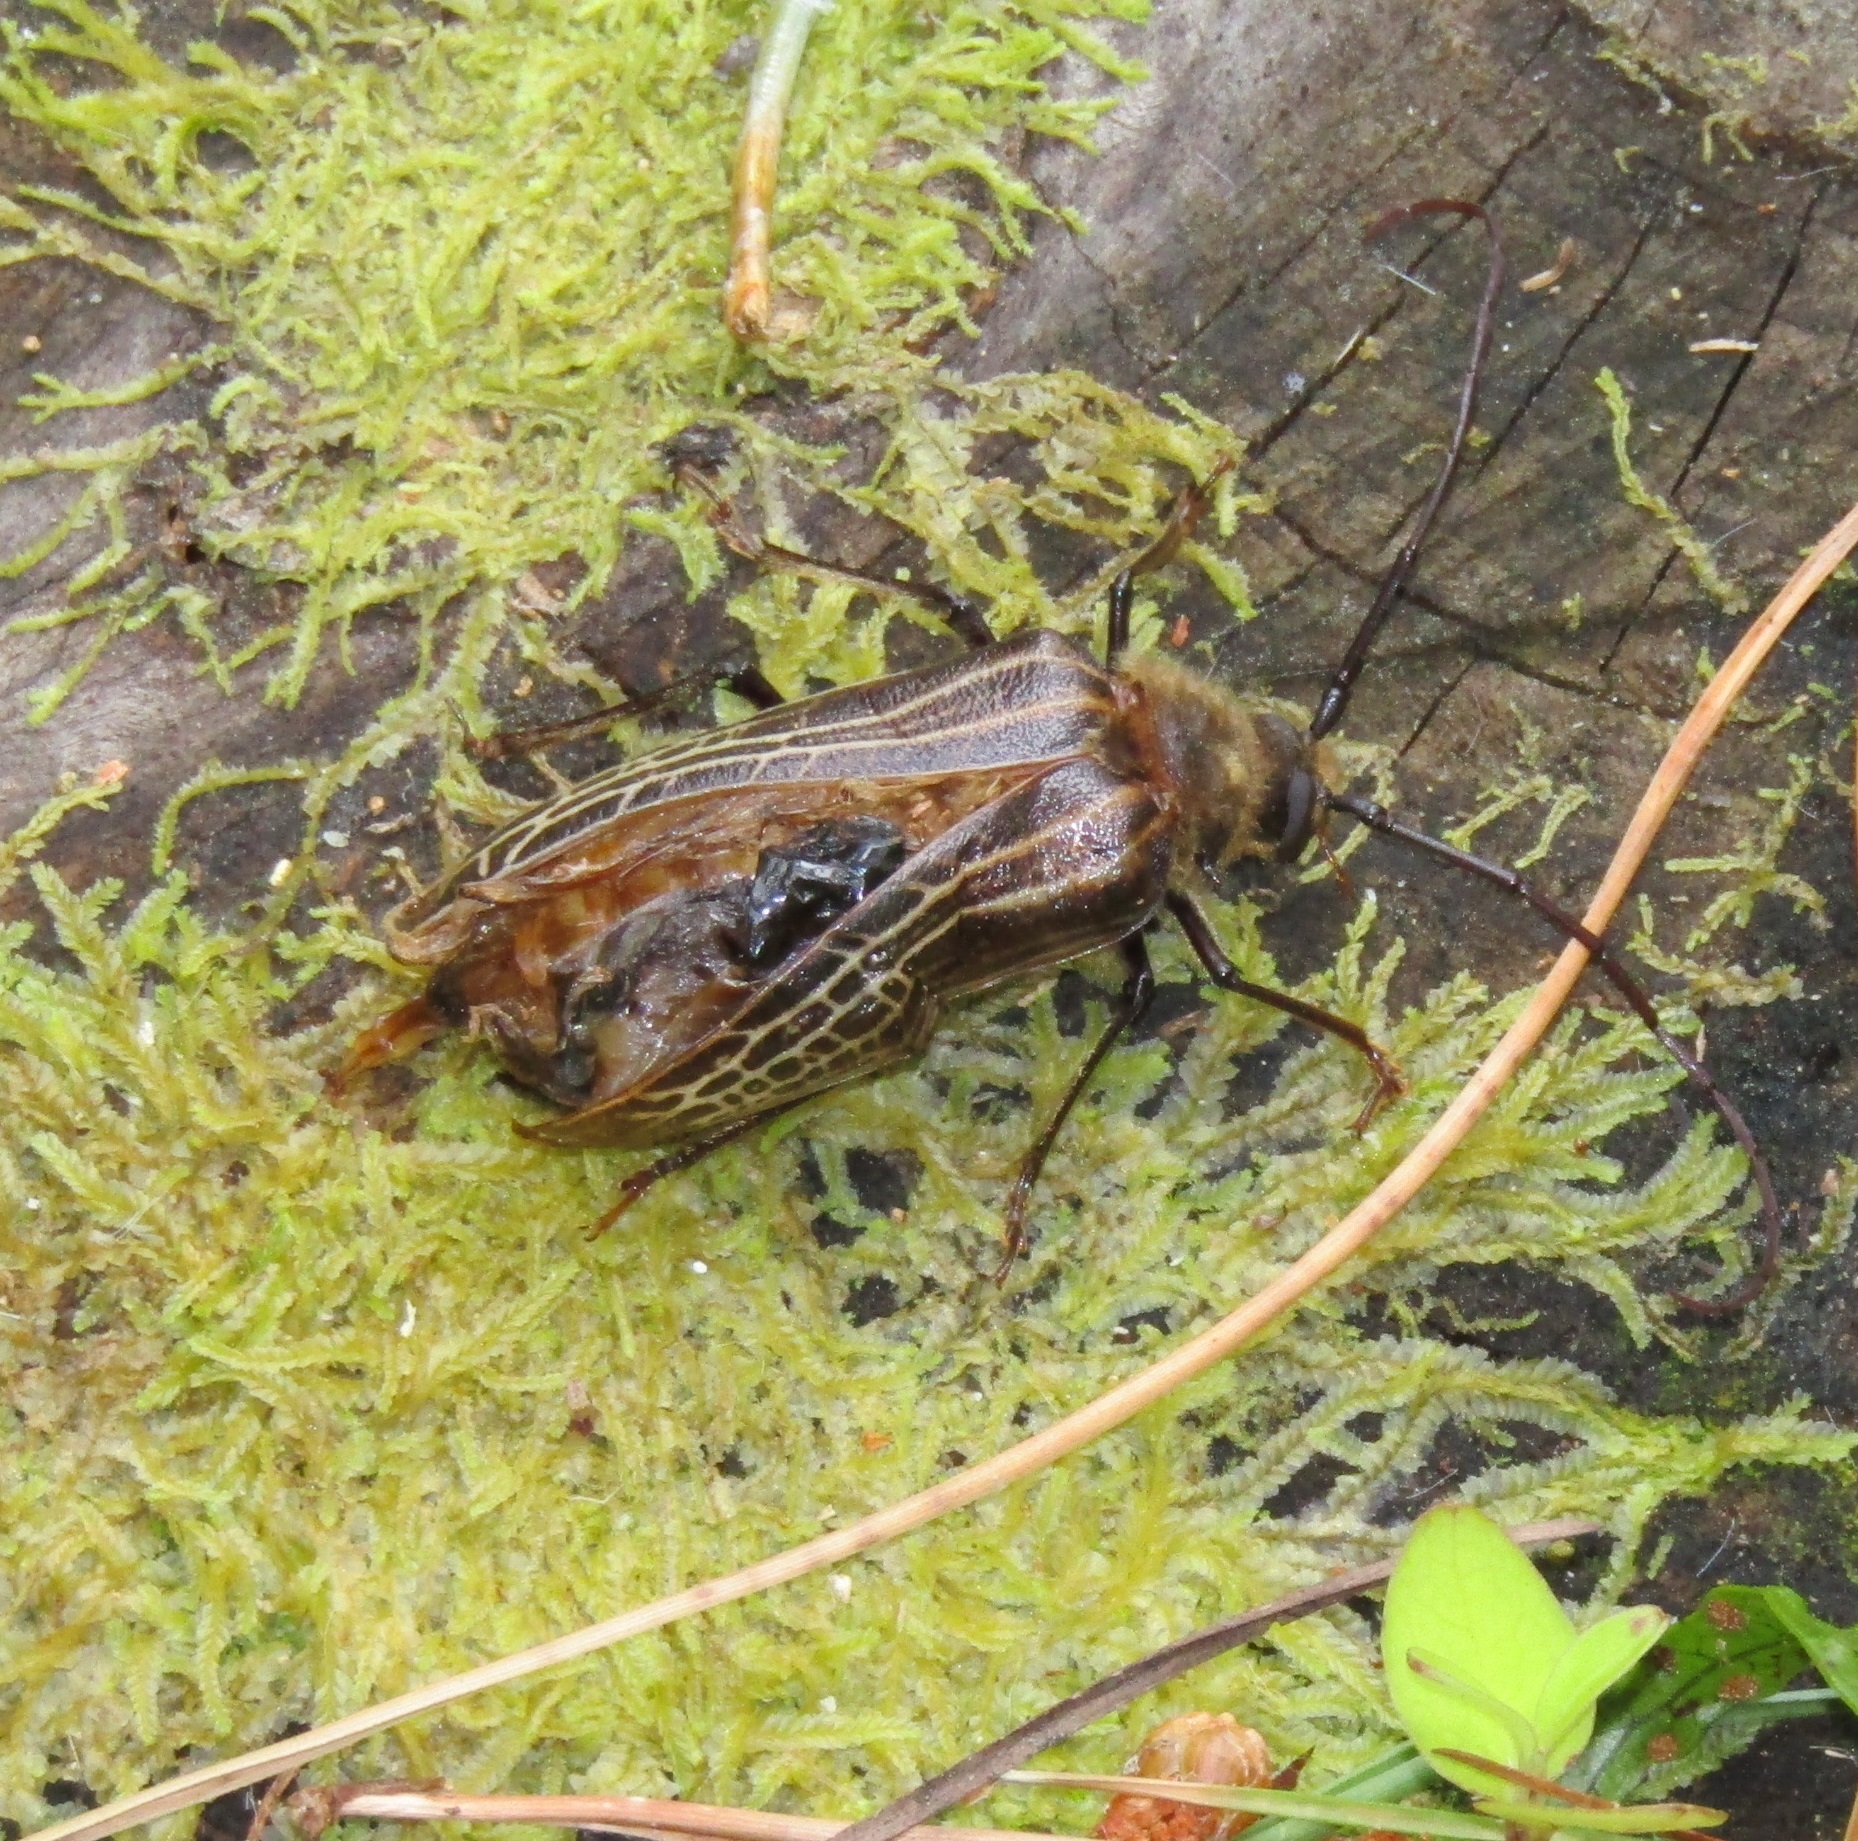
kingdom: Animalia
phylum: Arthropoda
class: Insecta
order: Coleoptera
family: Cerambycidae
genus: Prionoplus
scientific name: Prionoplus reticularis
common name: Huhu beetle
